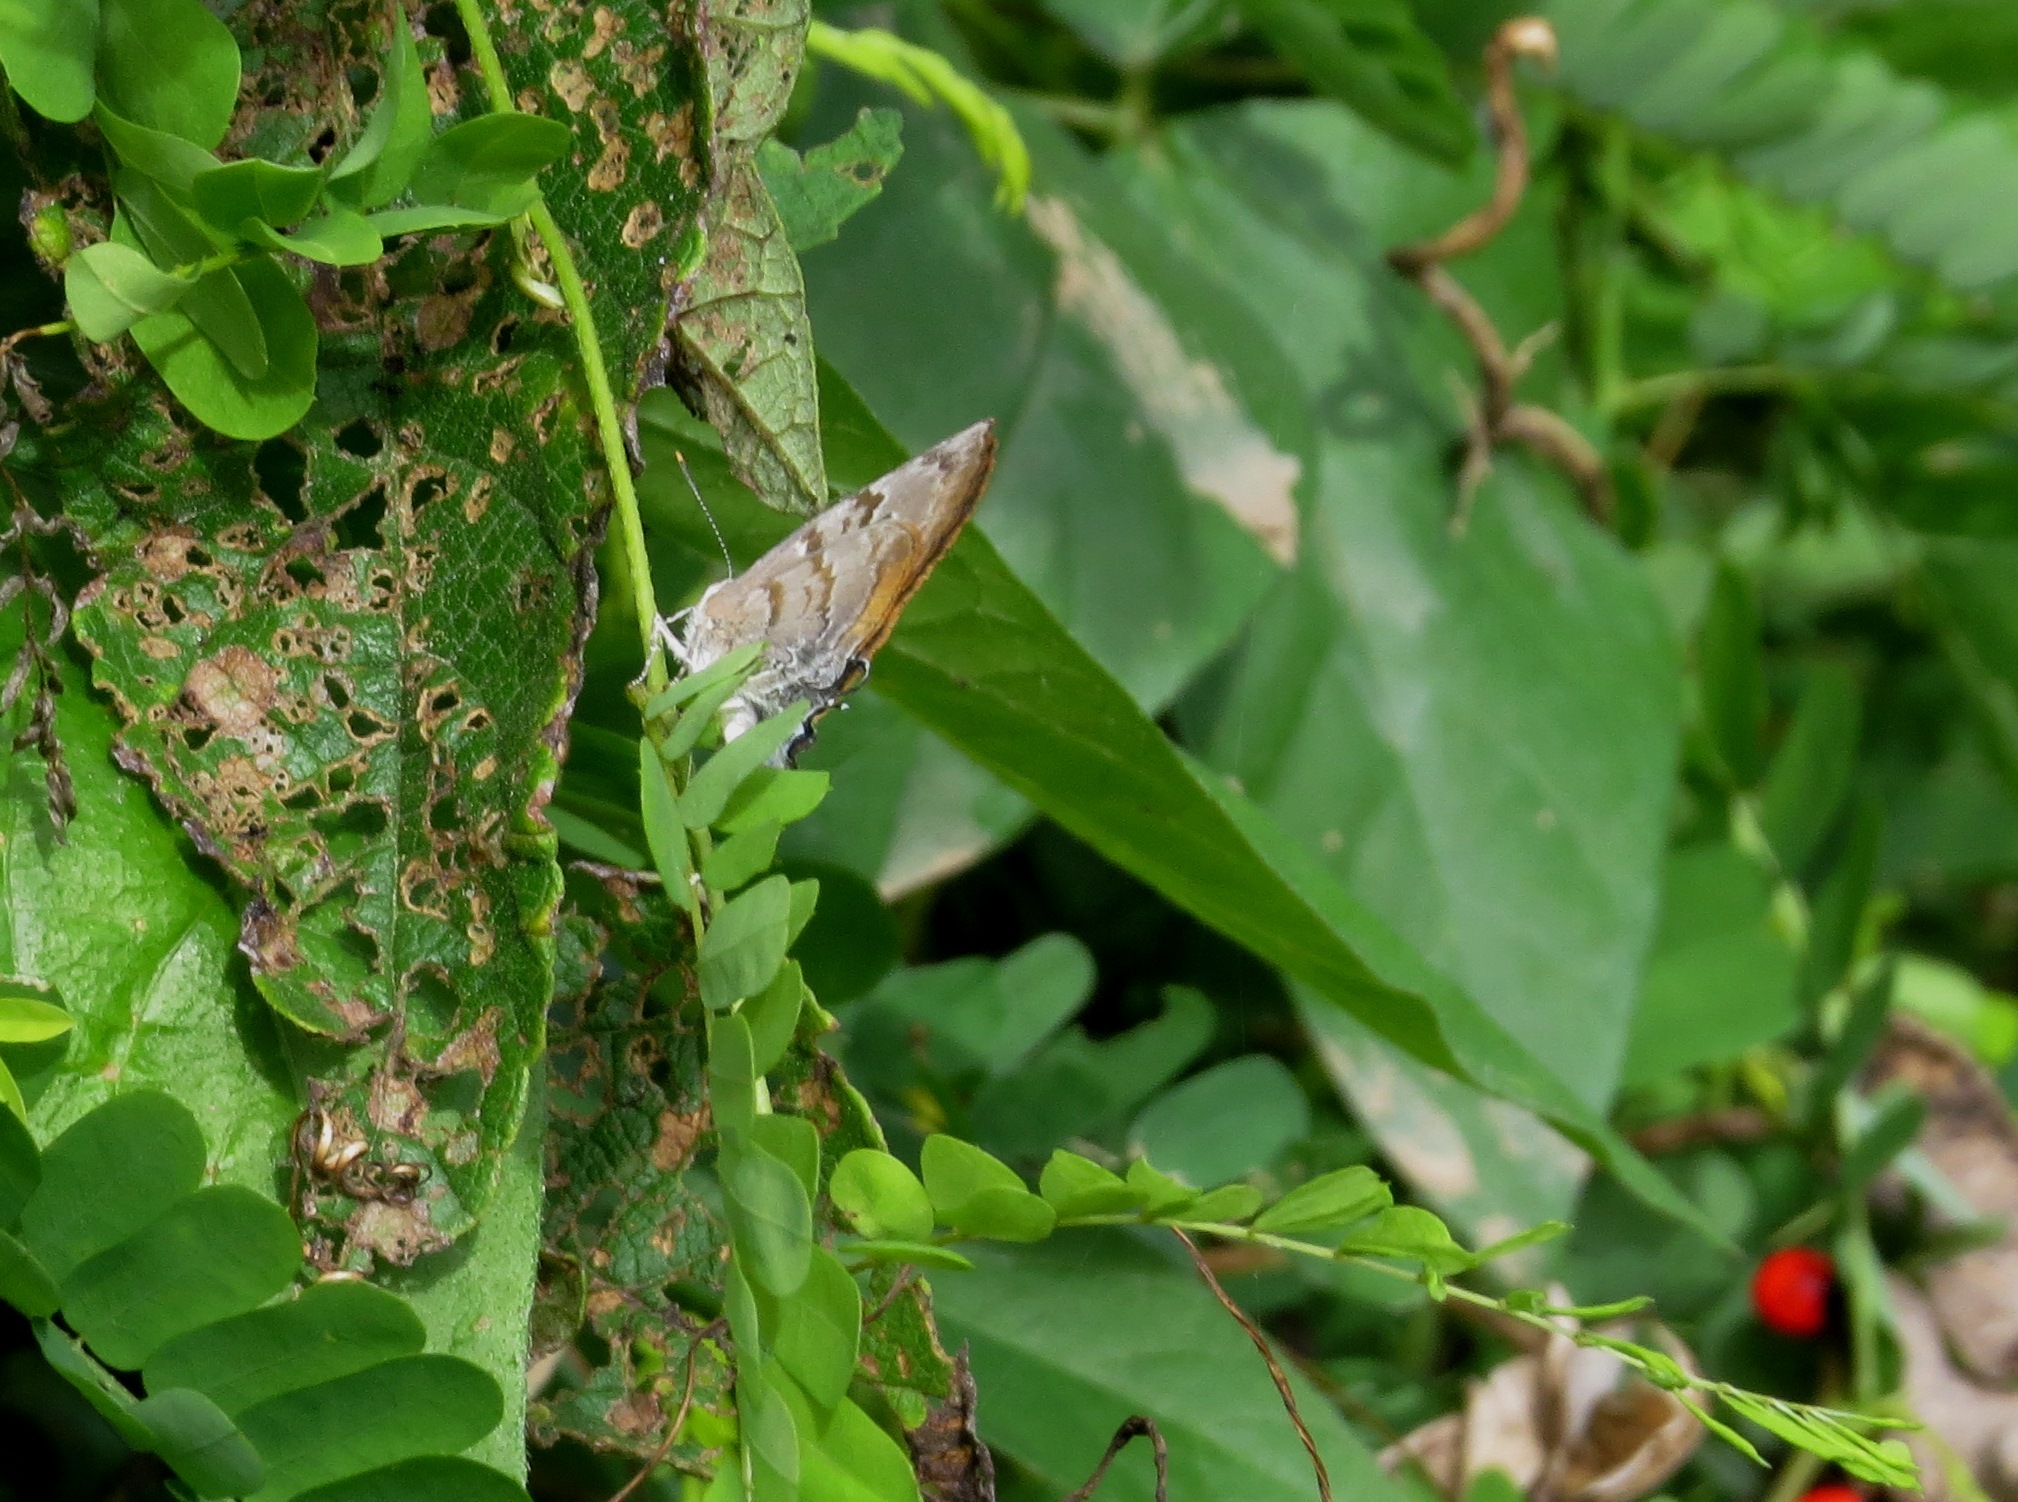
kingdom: Animalia
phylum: Arthropoda
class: Insecta
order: Lepidoptera
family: Lycaenidae
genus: Rekoa
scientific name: Rekoa palegon
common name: Gold-bordered hairstreak
